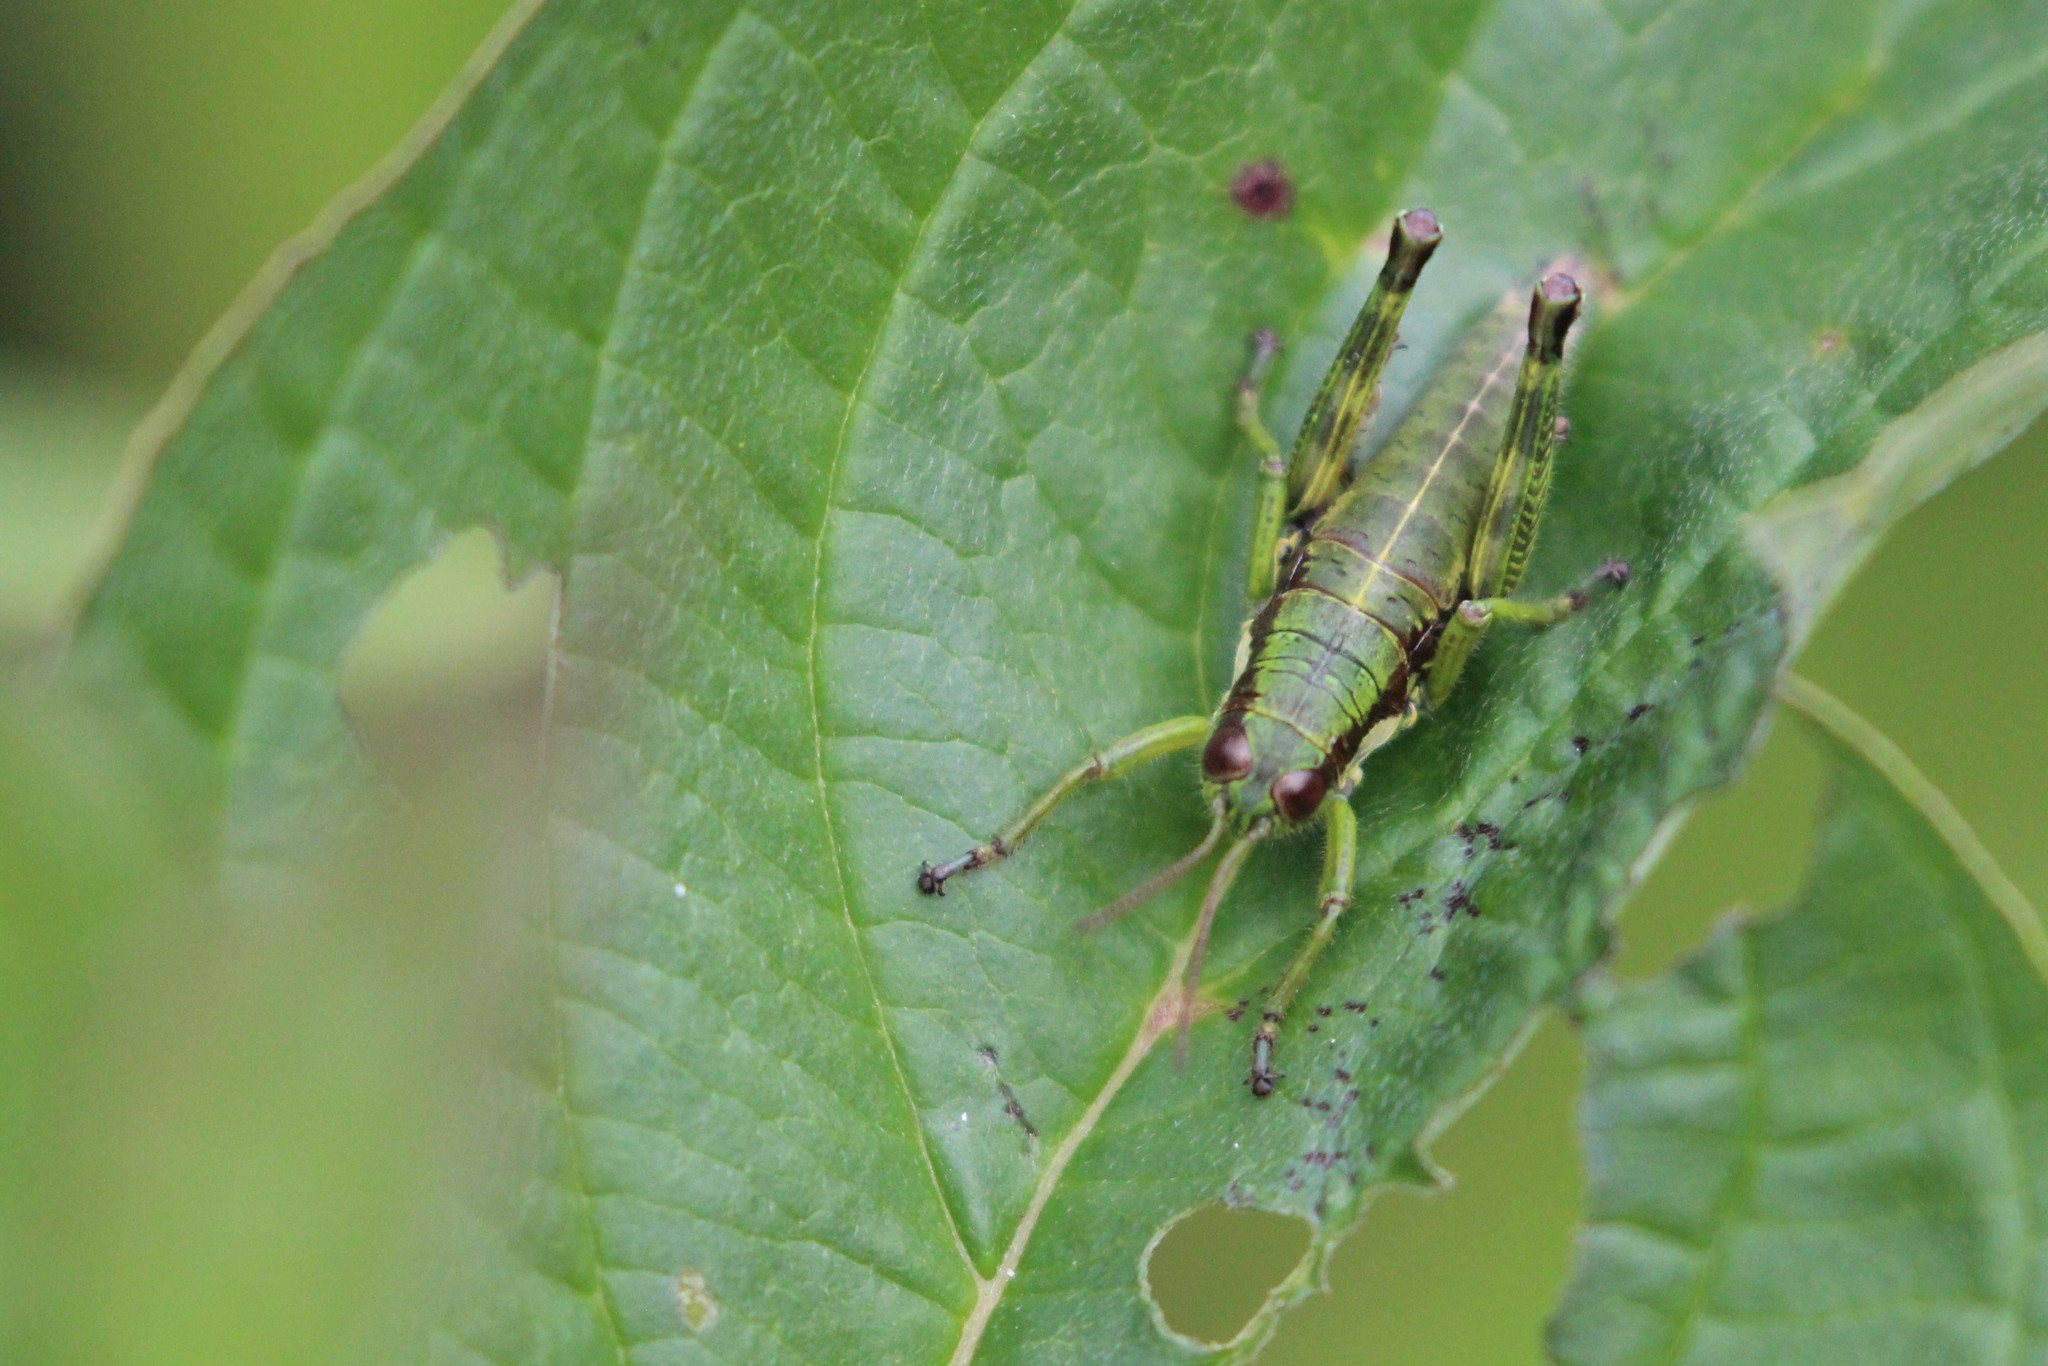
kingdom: Animalia
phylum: Arthropoda
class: Insecta
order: Orthoptera
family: Acrididae
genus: Booneacris
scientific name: Booneacris glacialis
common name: Wingless mountain grasshopper
